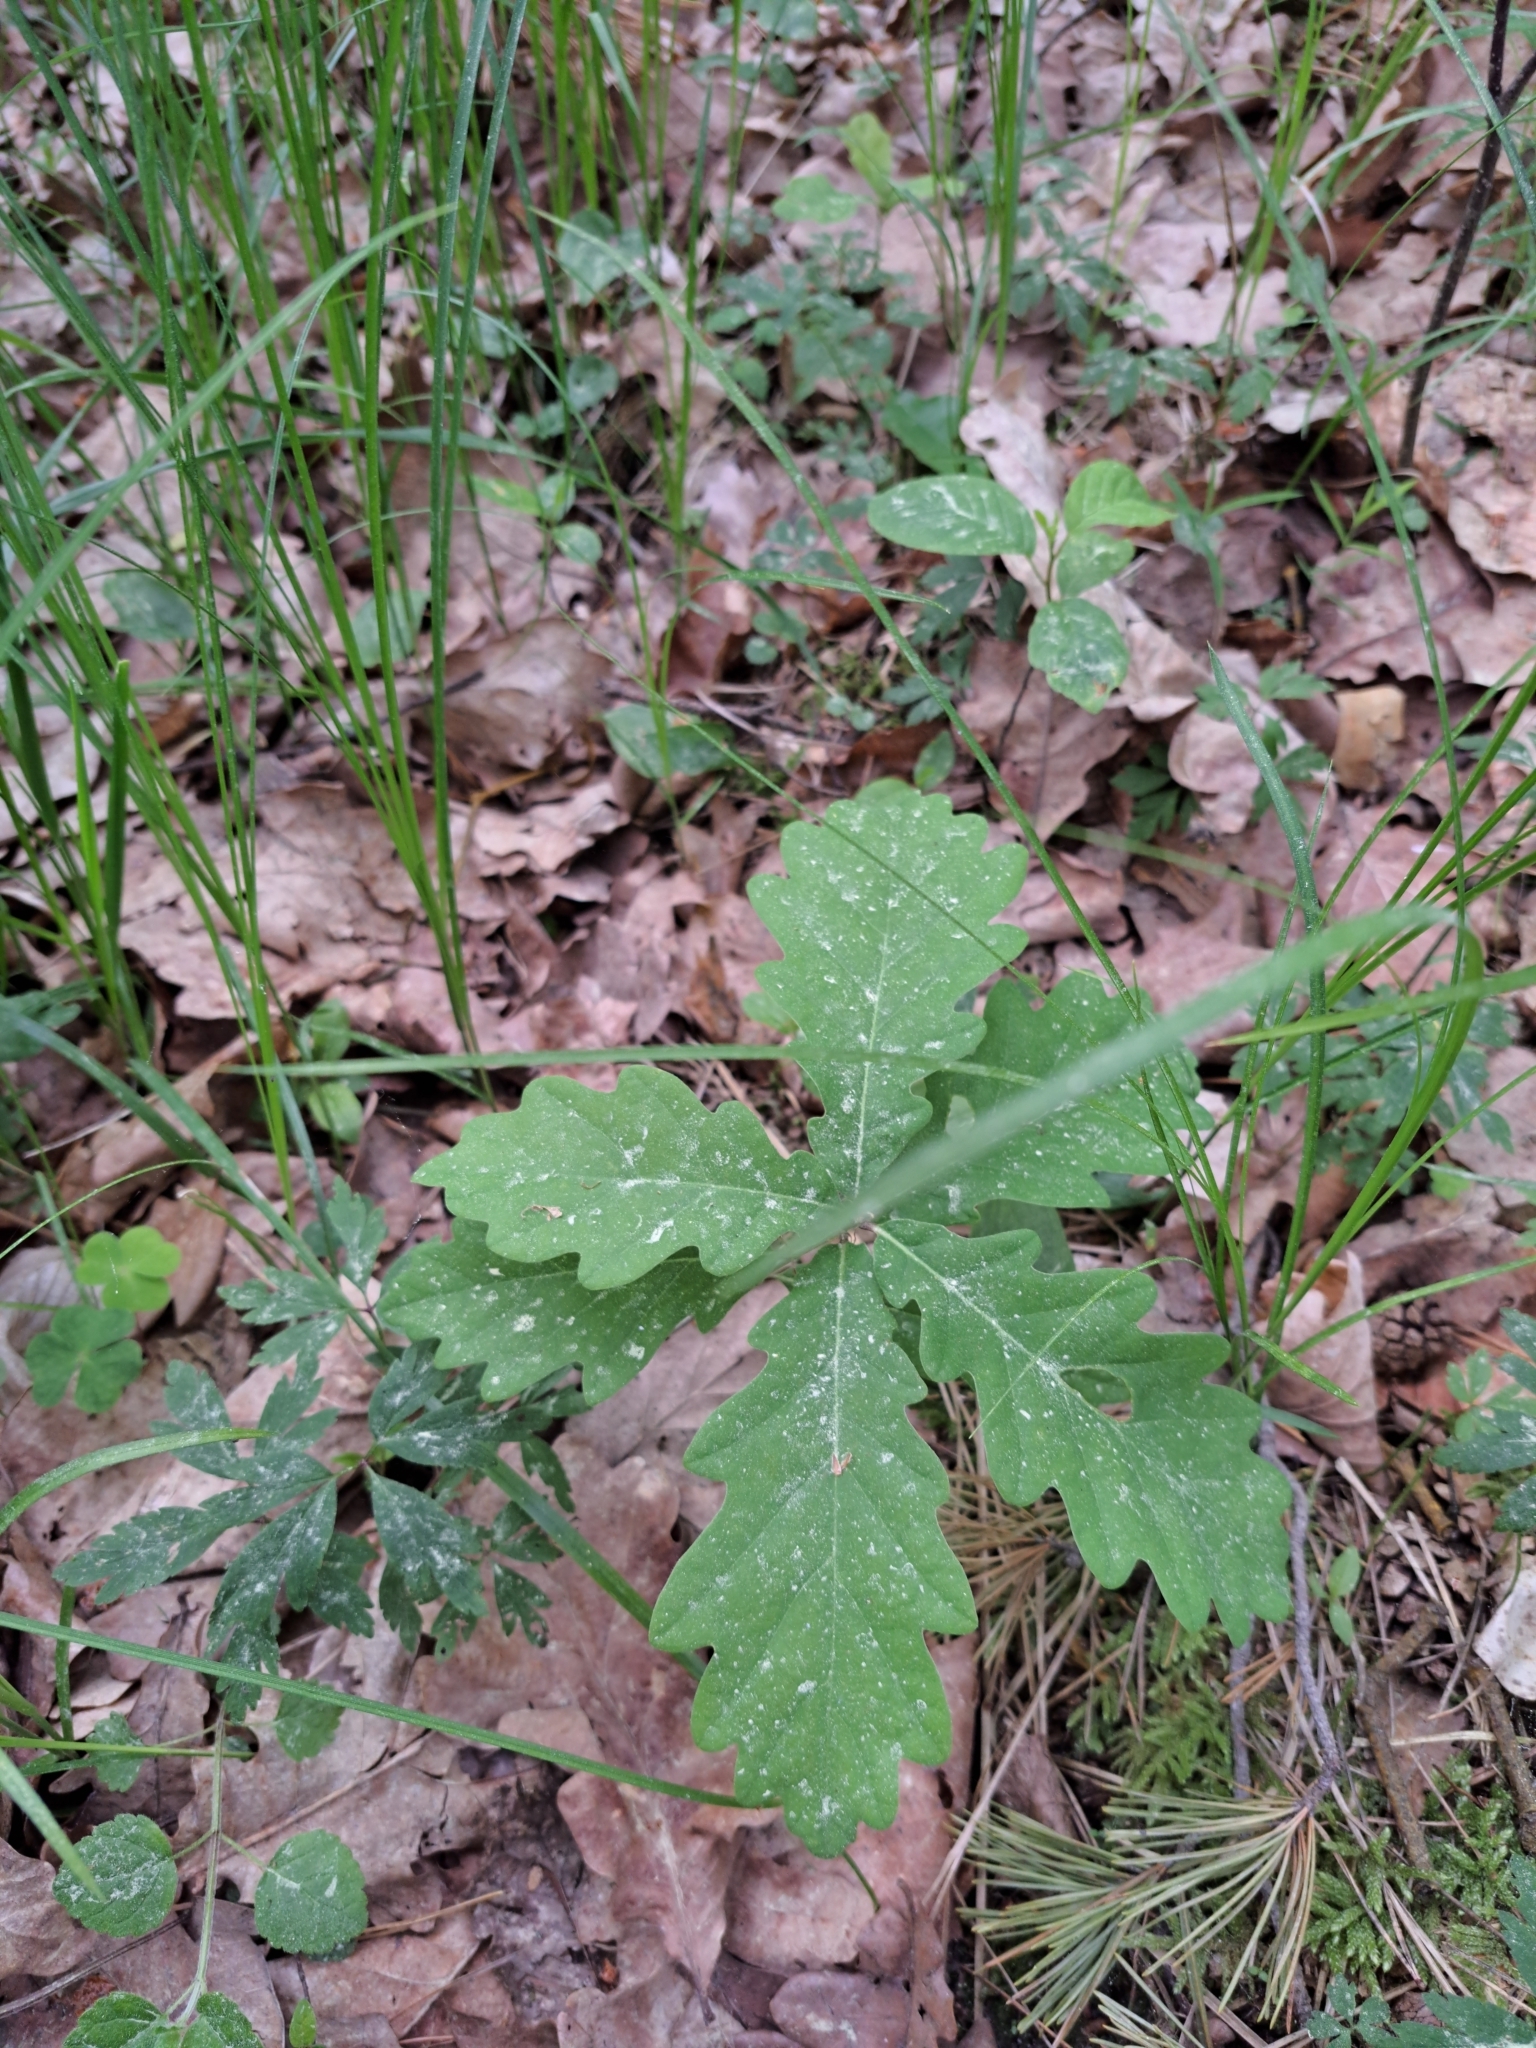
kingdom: Plantae
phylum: Tracheophyta
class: Magnoliopsida
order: Fagales
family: Fagaceae
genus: Quercus
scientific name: Quercus petraea
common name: Sessile oak
